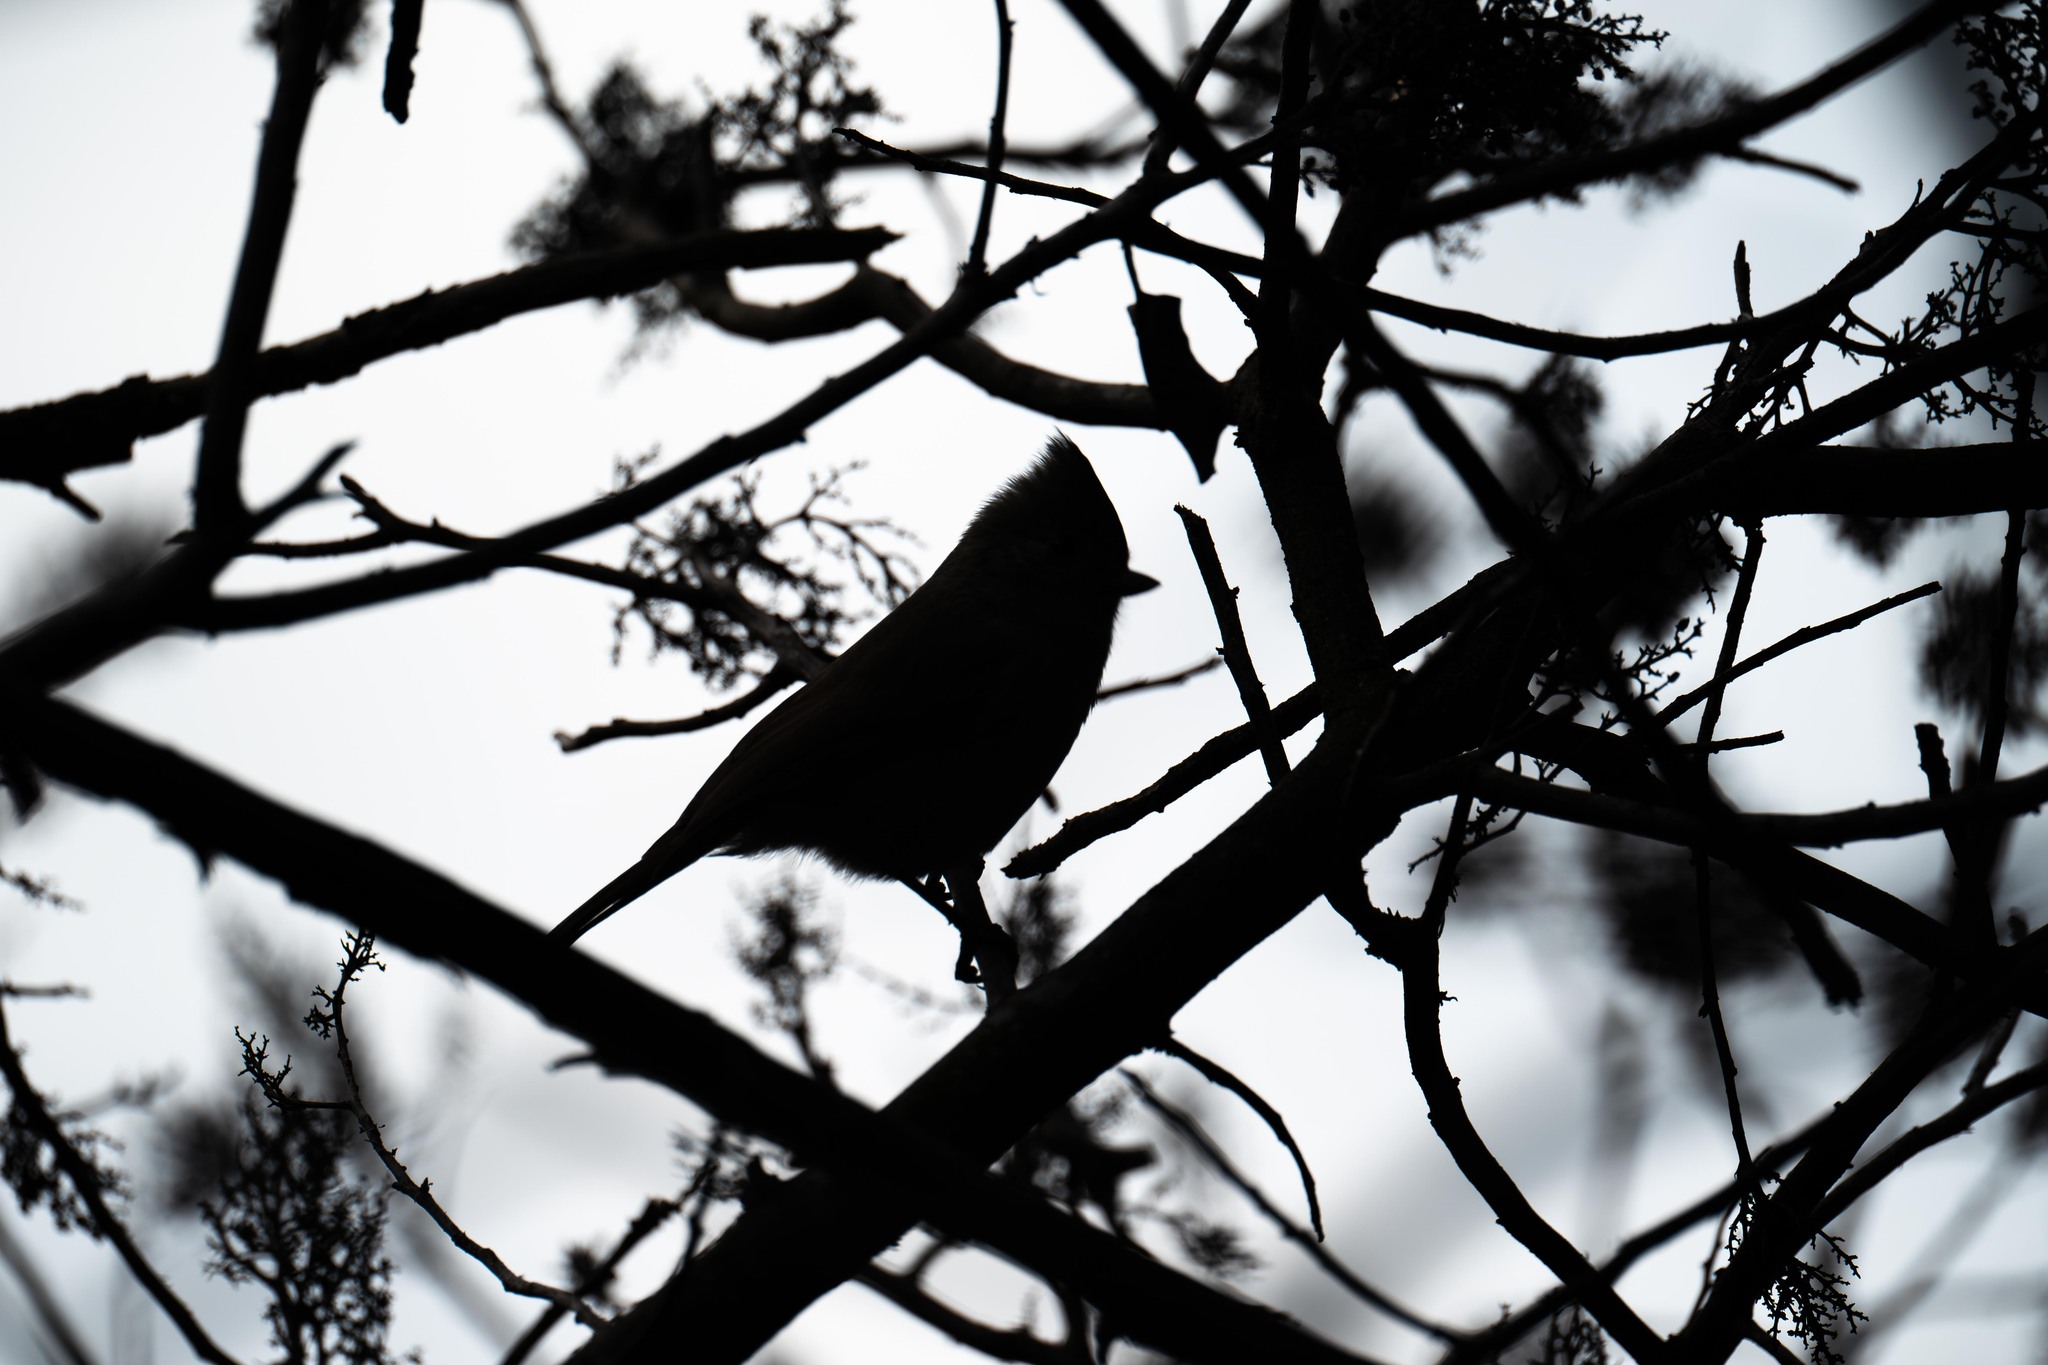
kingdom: Animalia
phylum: Chordata
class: Aves
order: Passeriformes
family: Paridae
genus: Baeolophus
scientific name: Baeolophus inornatus
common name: Oak titmouse
